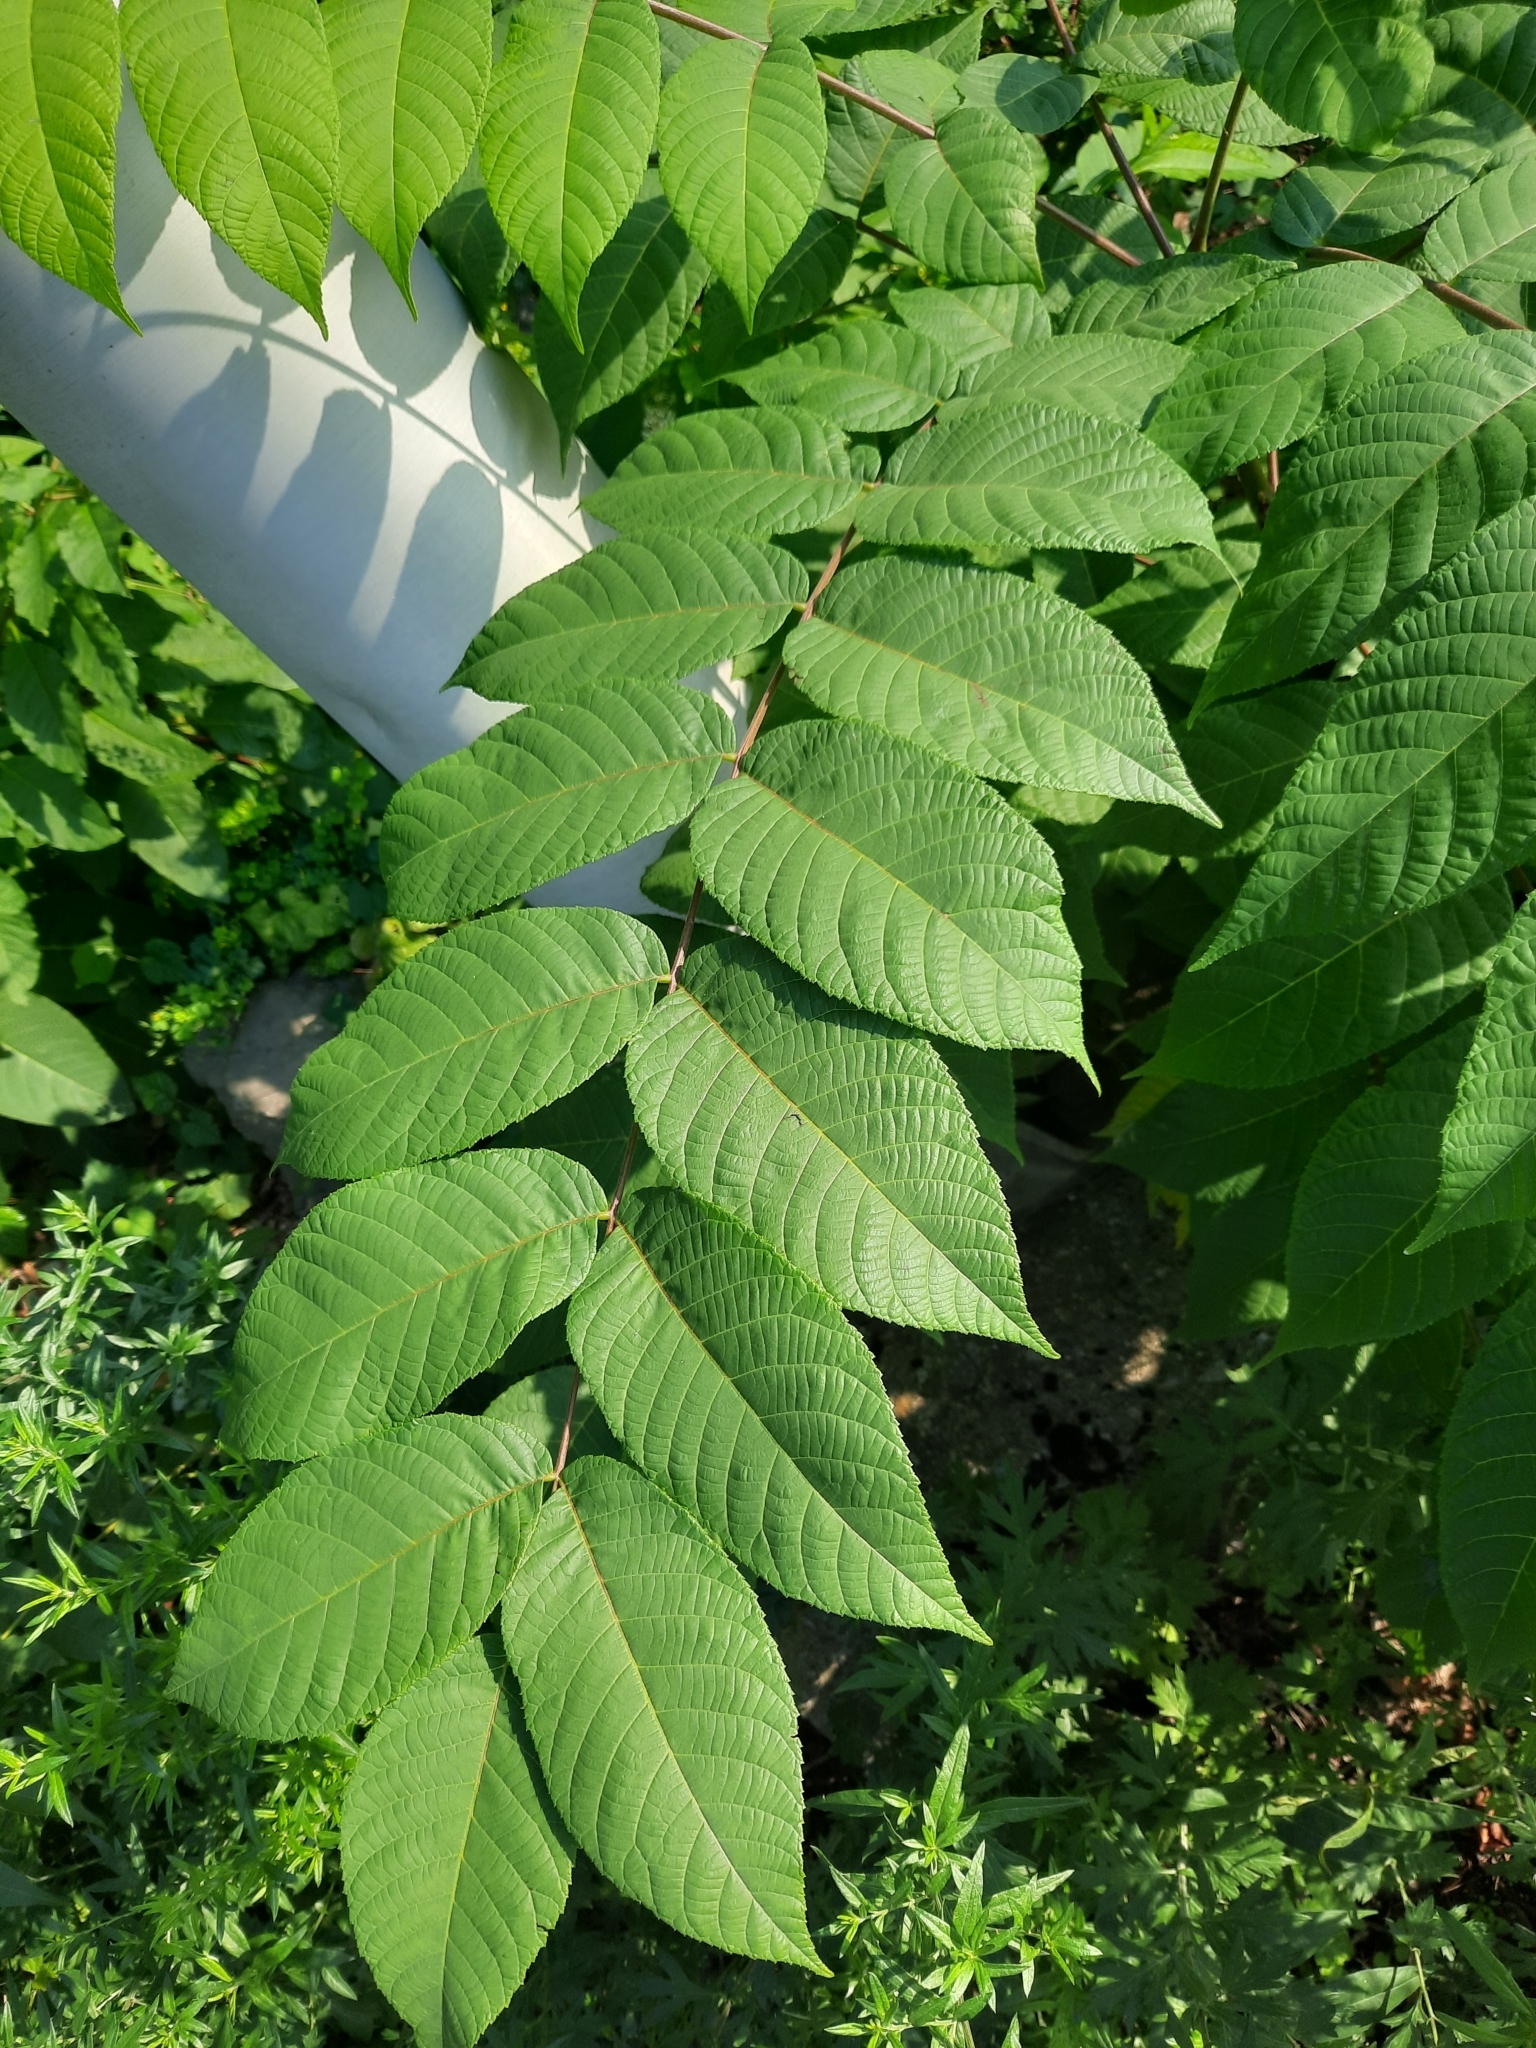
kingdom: Plantae
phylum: Tracheophyta
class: Magnoliopsida
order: Caryophyllales
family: Amaranthaceae
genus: Chenopodium
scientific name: Chenopodium album
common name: Fat-hen
